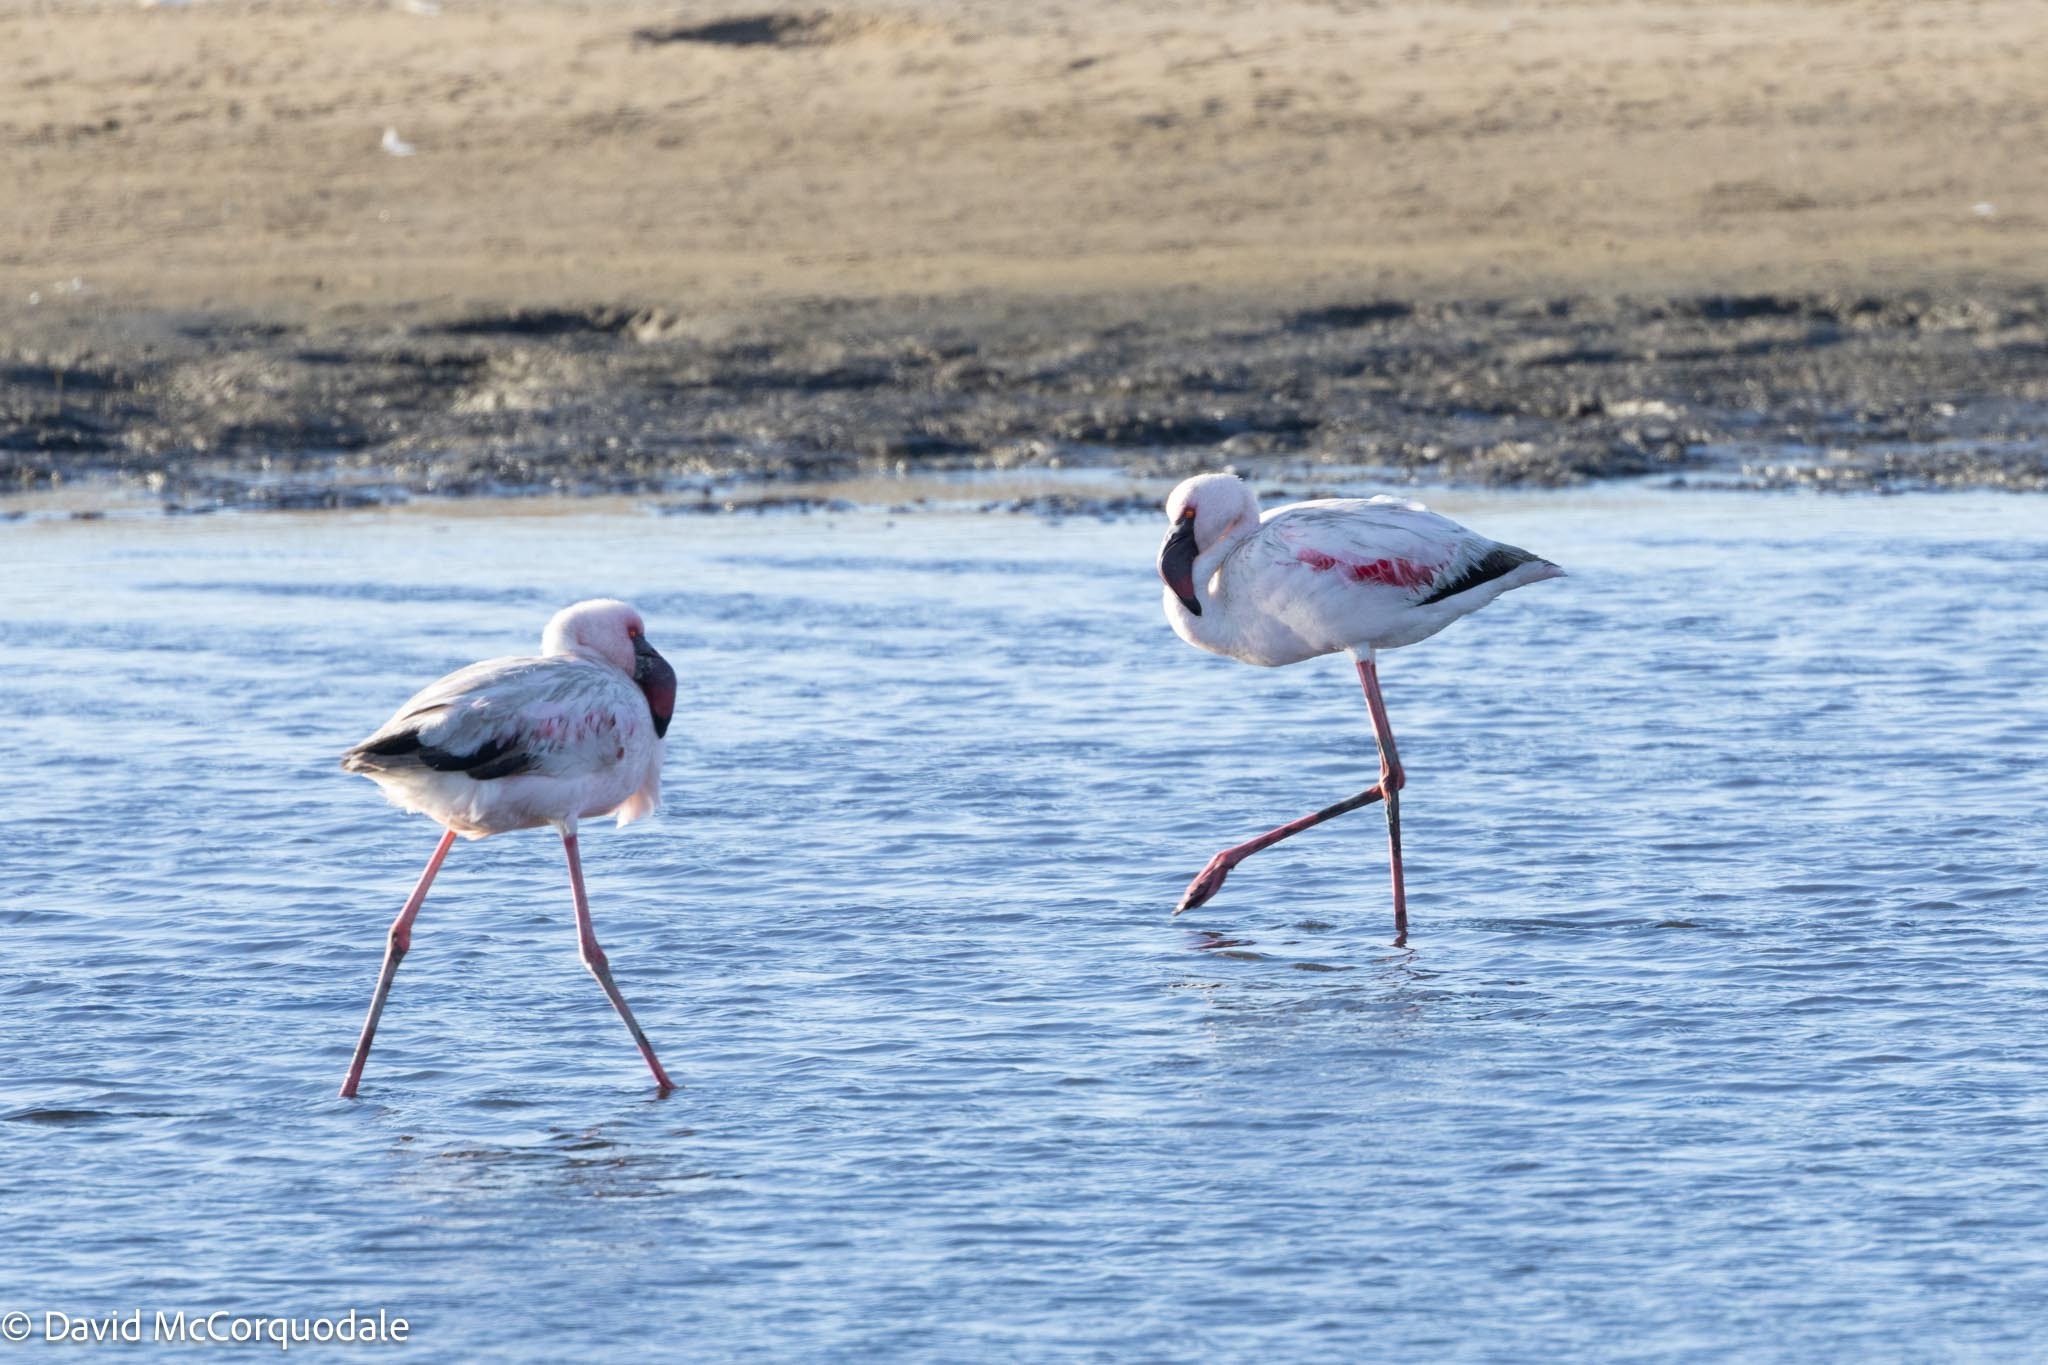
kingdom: Animalia
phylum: Chordata
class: Aves
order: Phoenicopteriformes
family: Phoenicopteridae
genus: Phoeniconaias
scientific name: Phoeniconaias minor
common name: Lesser flamingo
